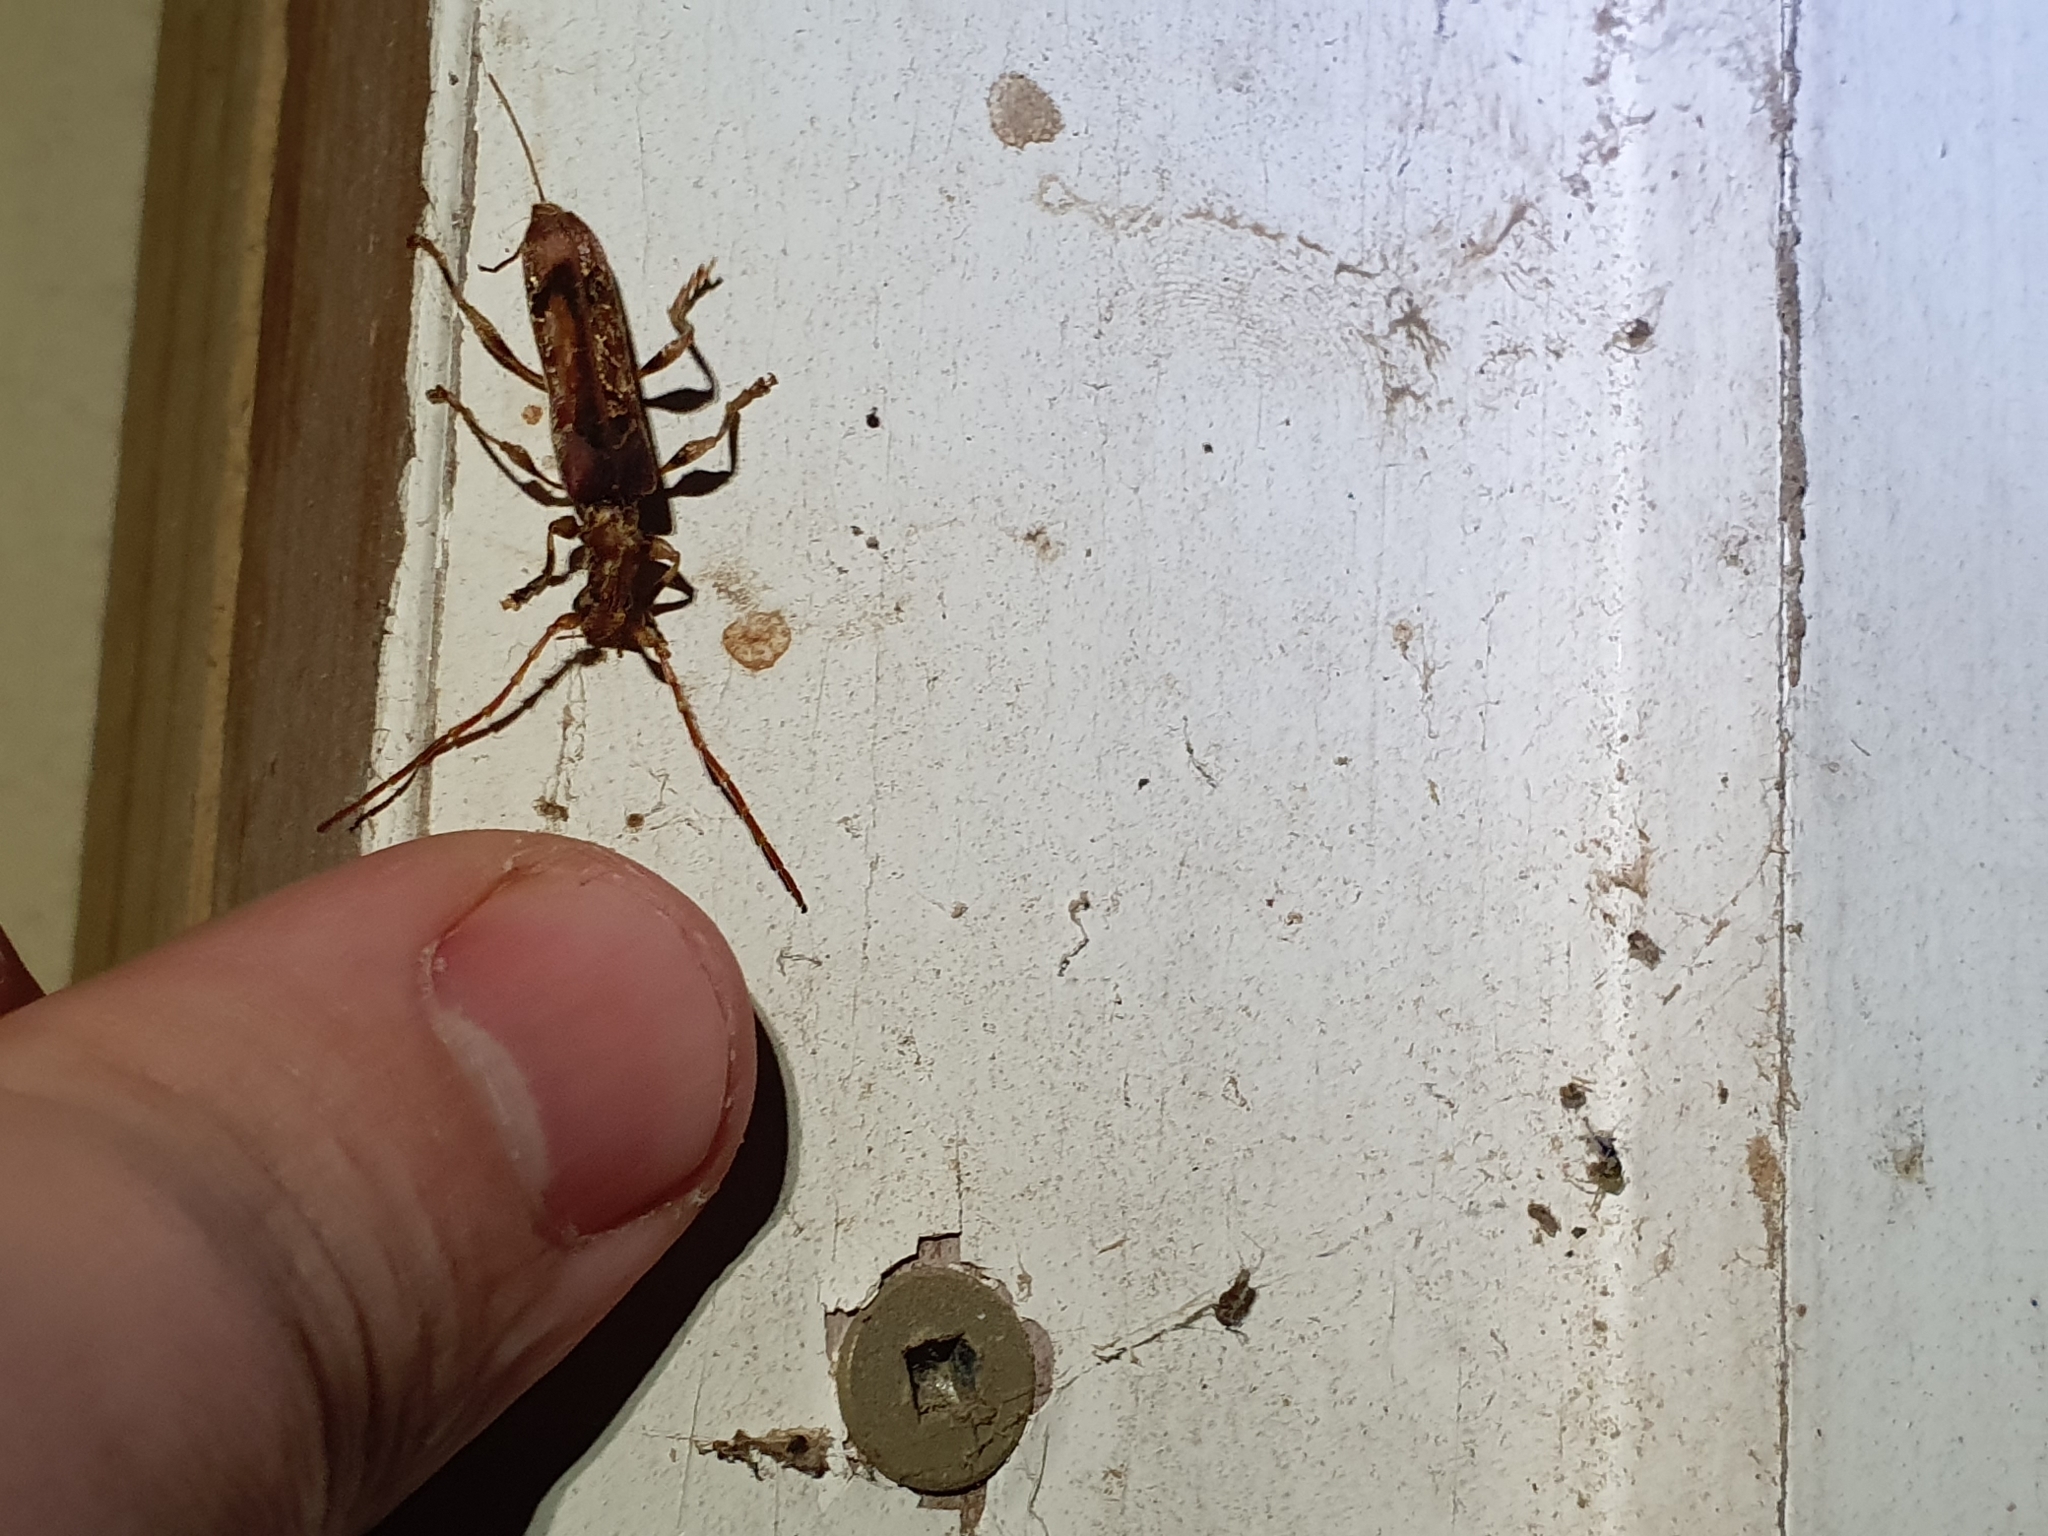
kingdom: Animalia
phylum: Arthropoda
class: Insecta
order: Coleoptera
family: Cerambycidae
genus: Tessaromma
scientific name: Tessaromma undatum
